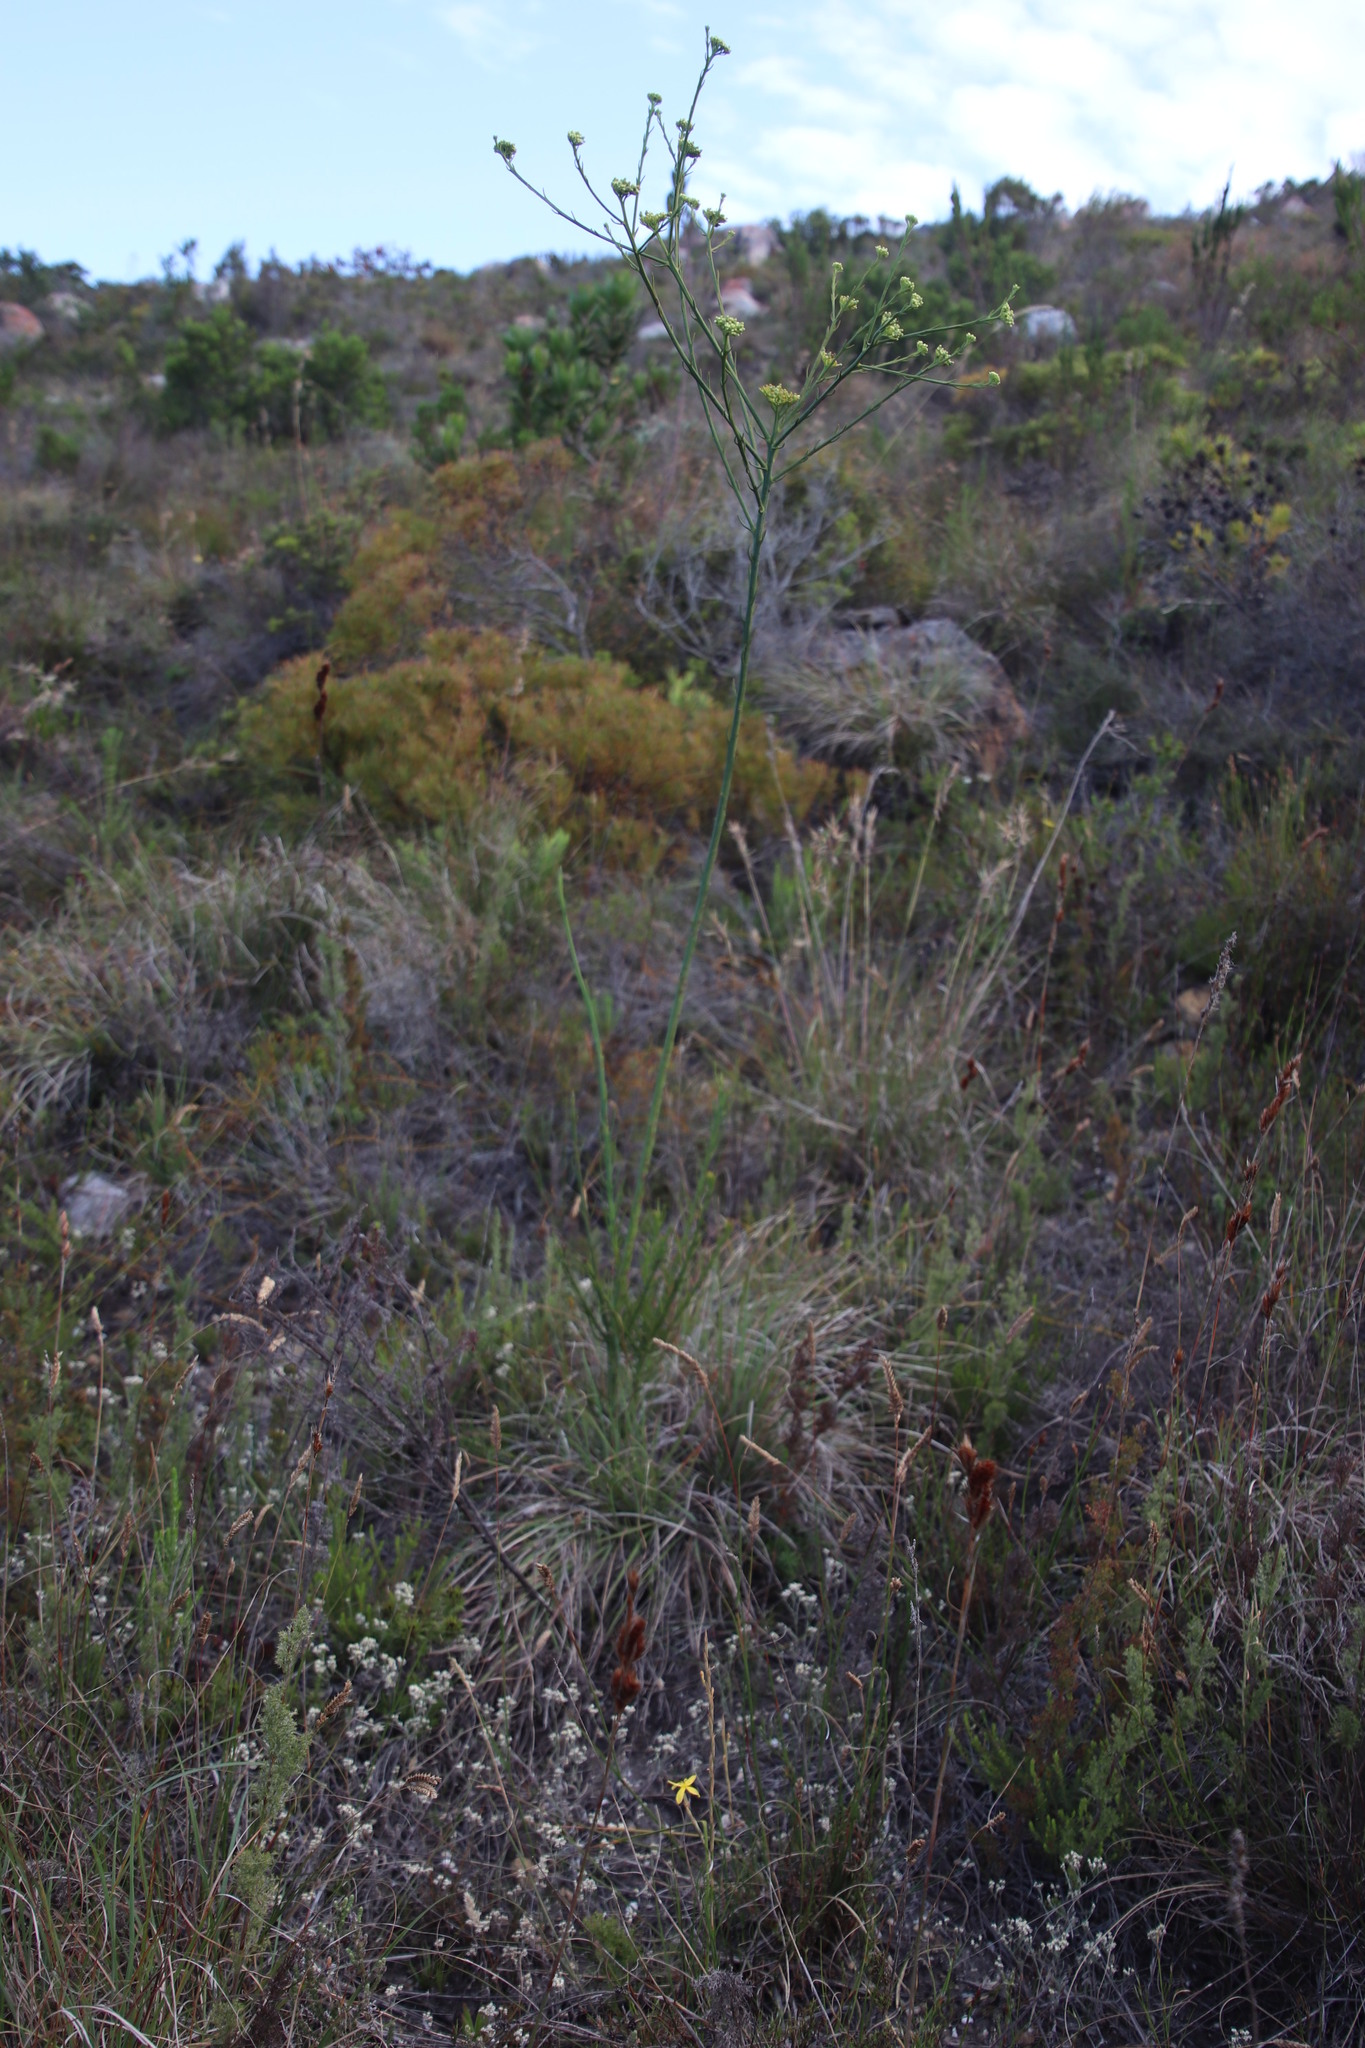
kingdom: Plantae
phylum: Tracheophyta
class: Magnoliopsida
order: Santalales
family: Thesiaceae
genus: Thesium
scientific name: Thesium strictum
